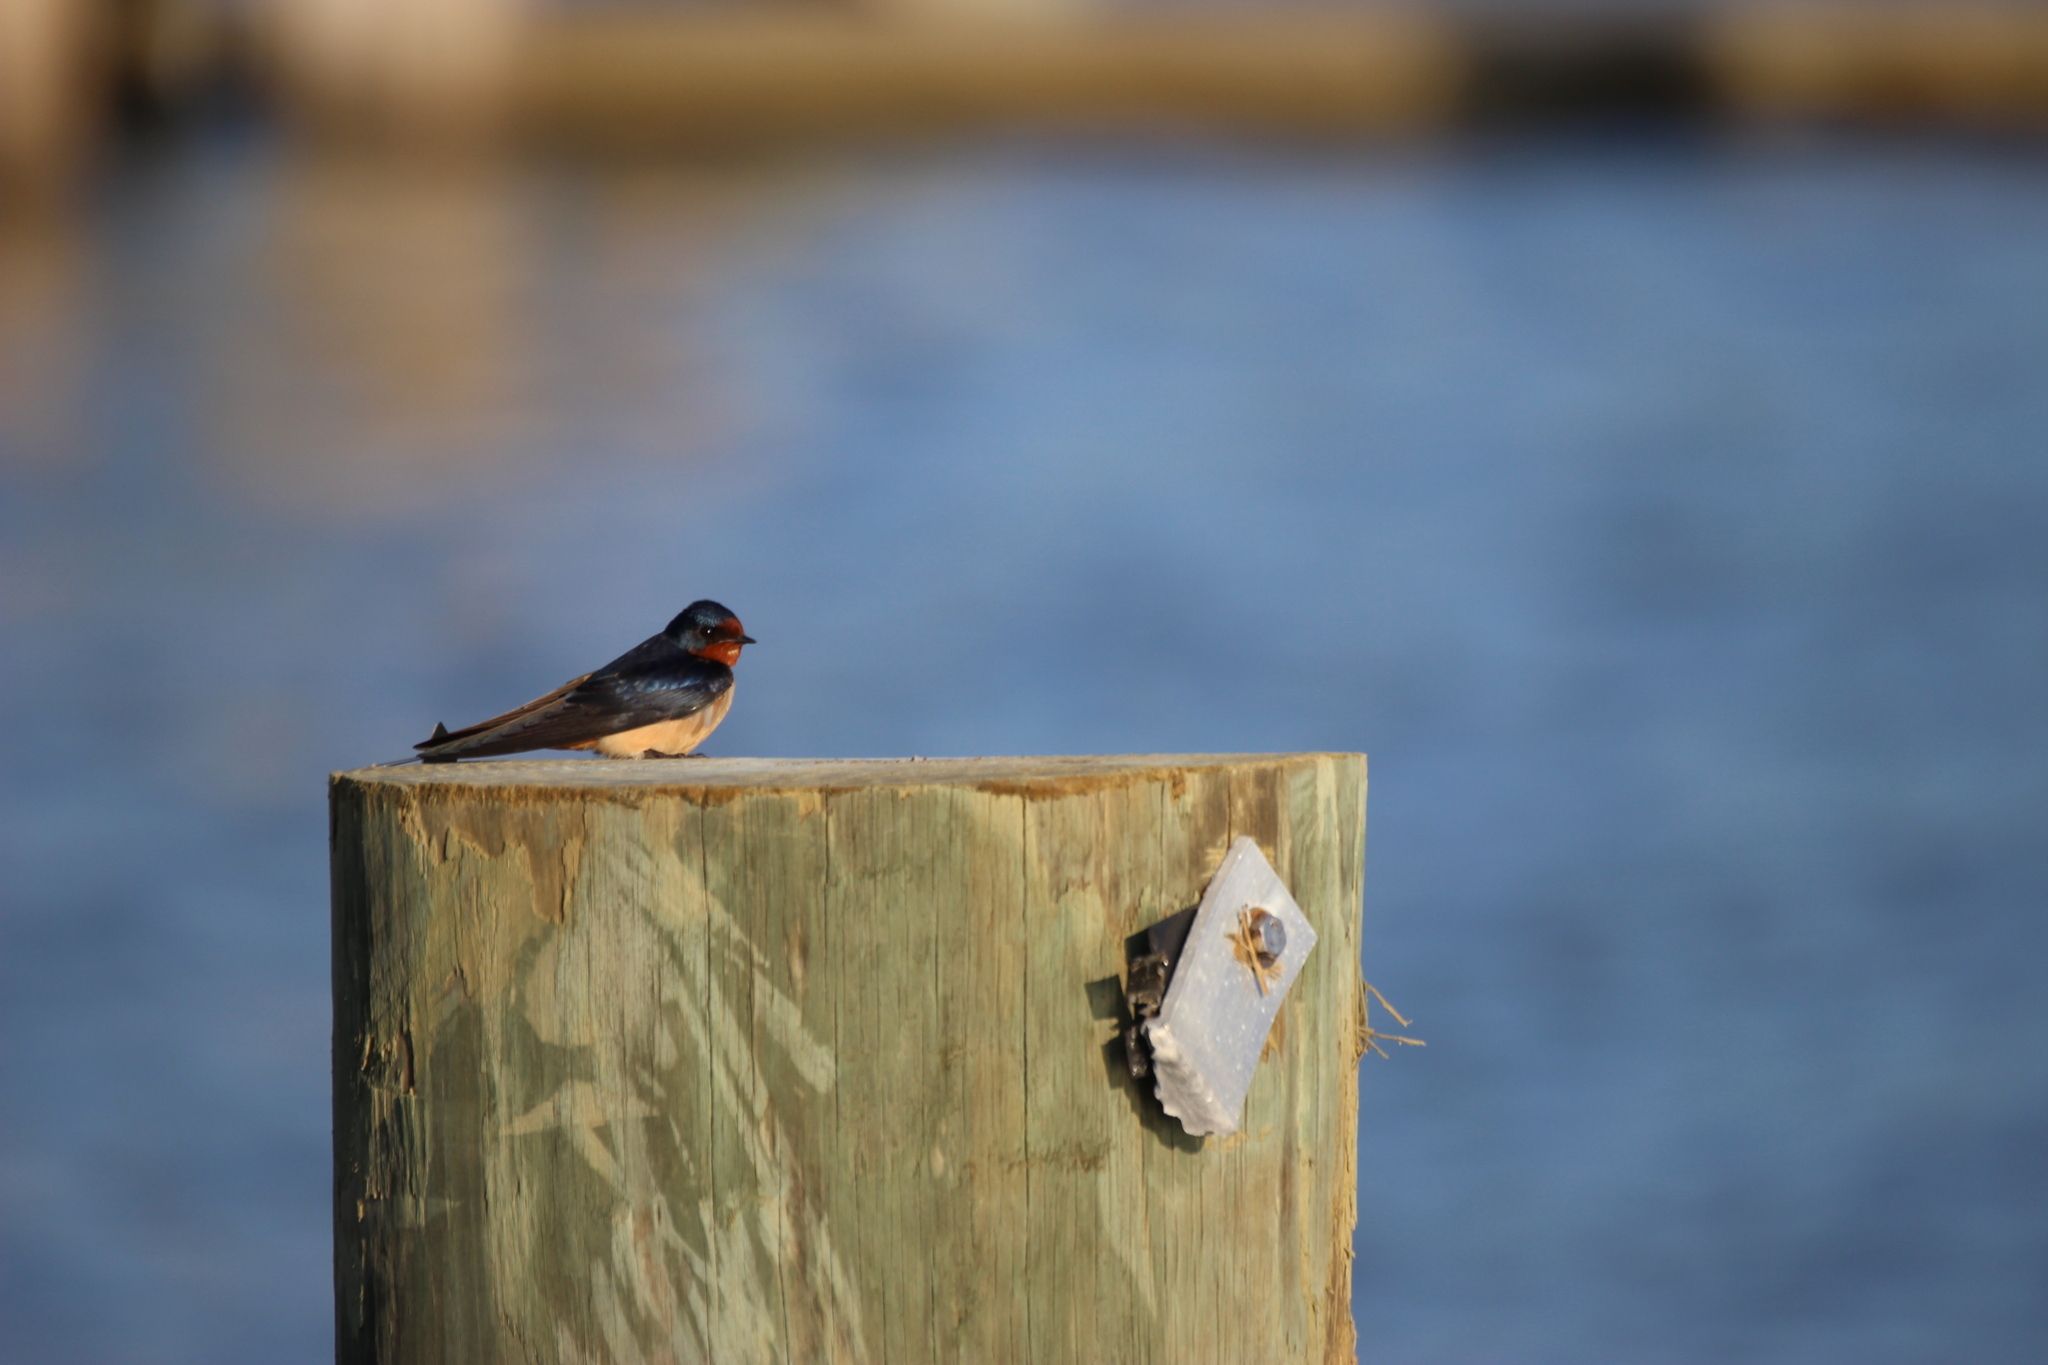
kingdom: Animalia
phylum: Chordata
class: Aves
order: Passeriformes
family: Hirundinidae
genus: Hirundo
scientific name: Hirundo rustica
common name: Barn swallow
